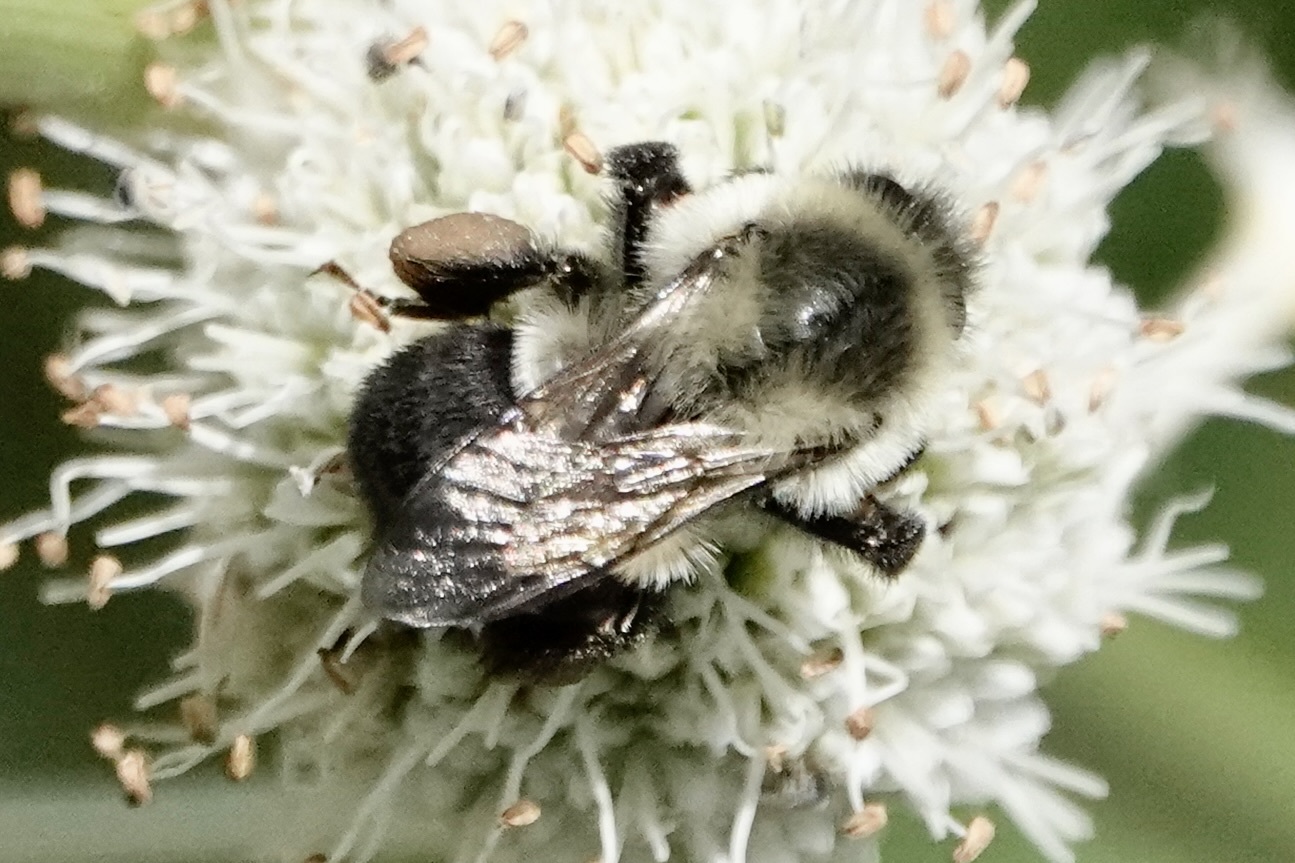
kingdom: Animalia
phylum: Arthropoda
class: Insecta
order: Hymenoptera
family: Apidae
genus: Bombus
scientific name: Bombus impatiens
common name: Common eastern bumble bee
